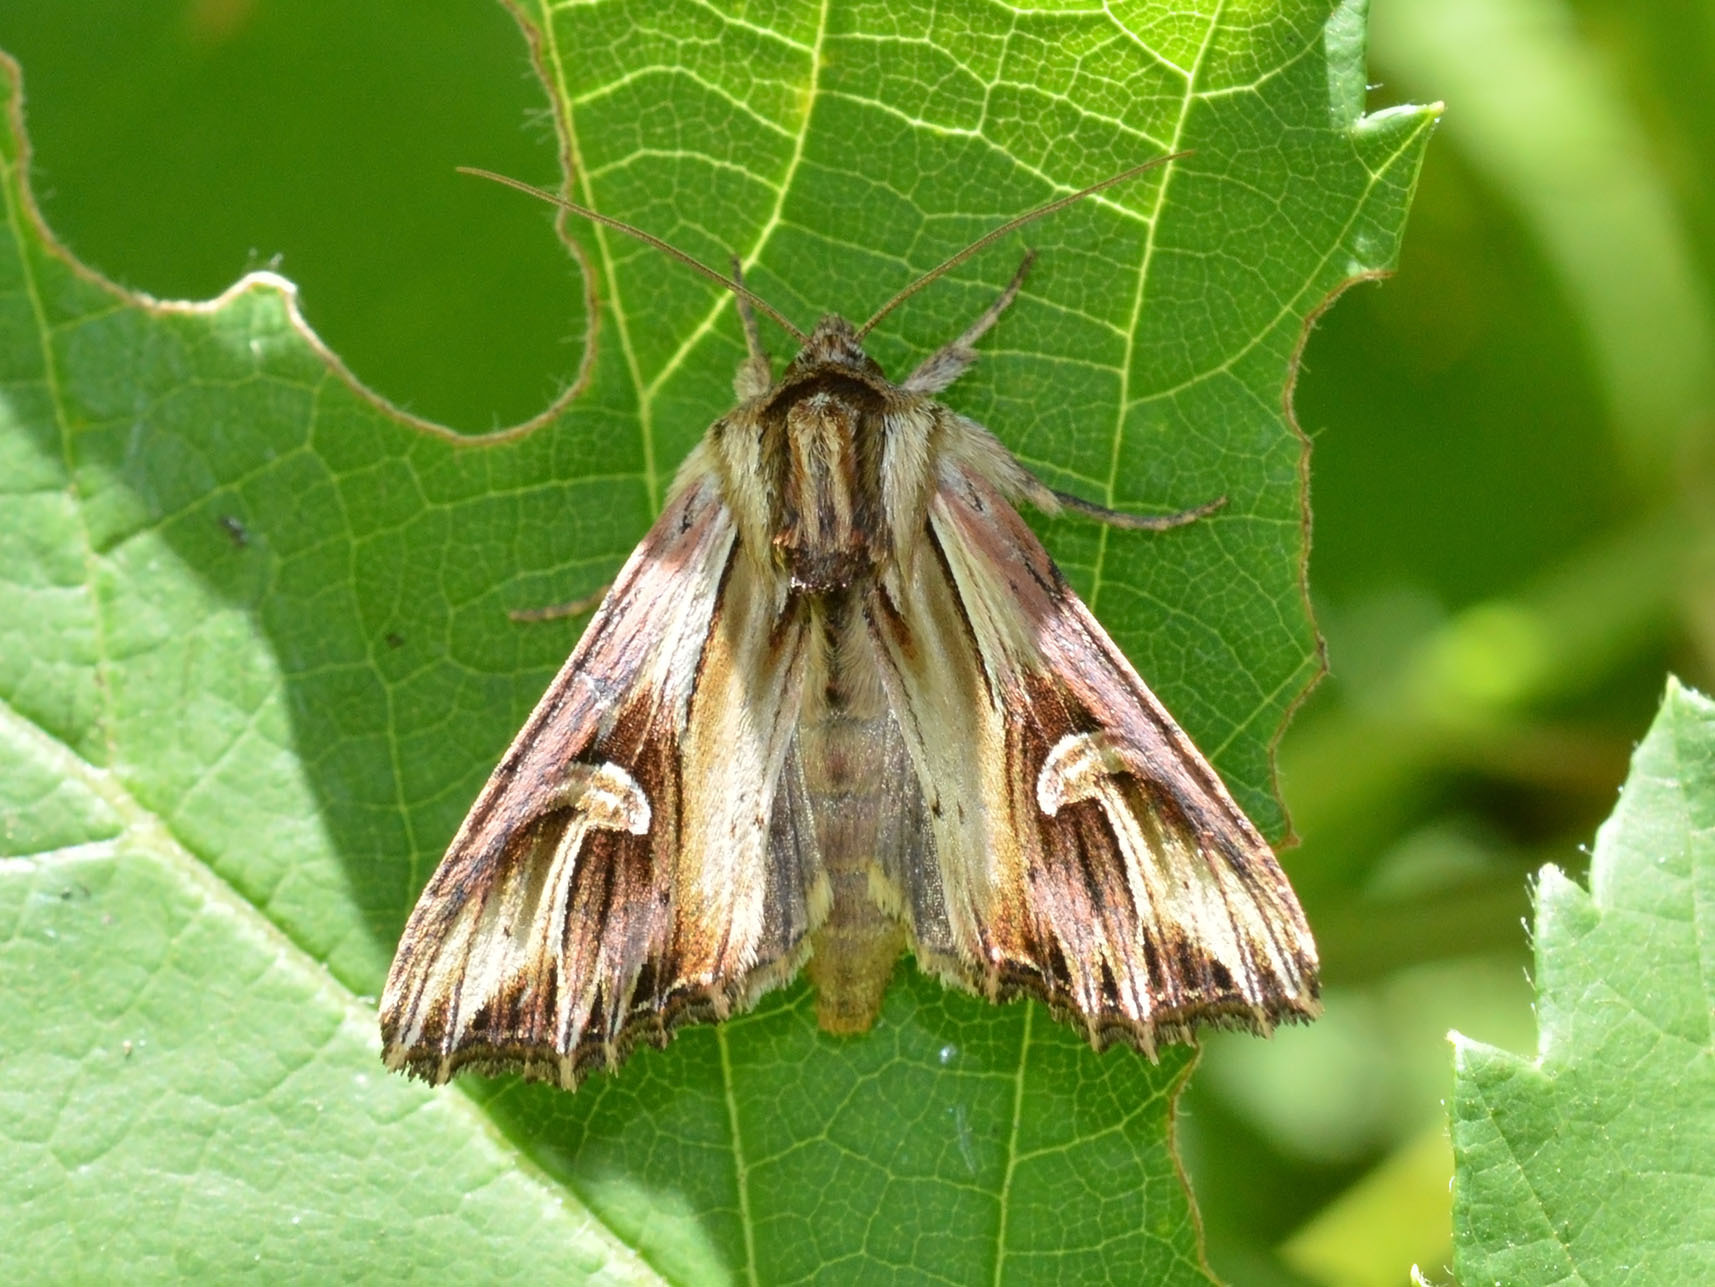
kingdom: Animalia
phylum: Arthropoda
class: Insecta
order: Lepidoptera
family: Noctuidae
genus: Actinotia
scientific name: Actinotia polyodon
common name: Purple cloud
